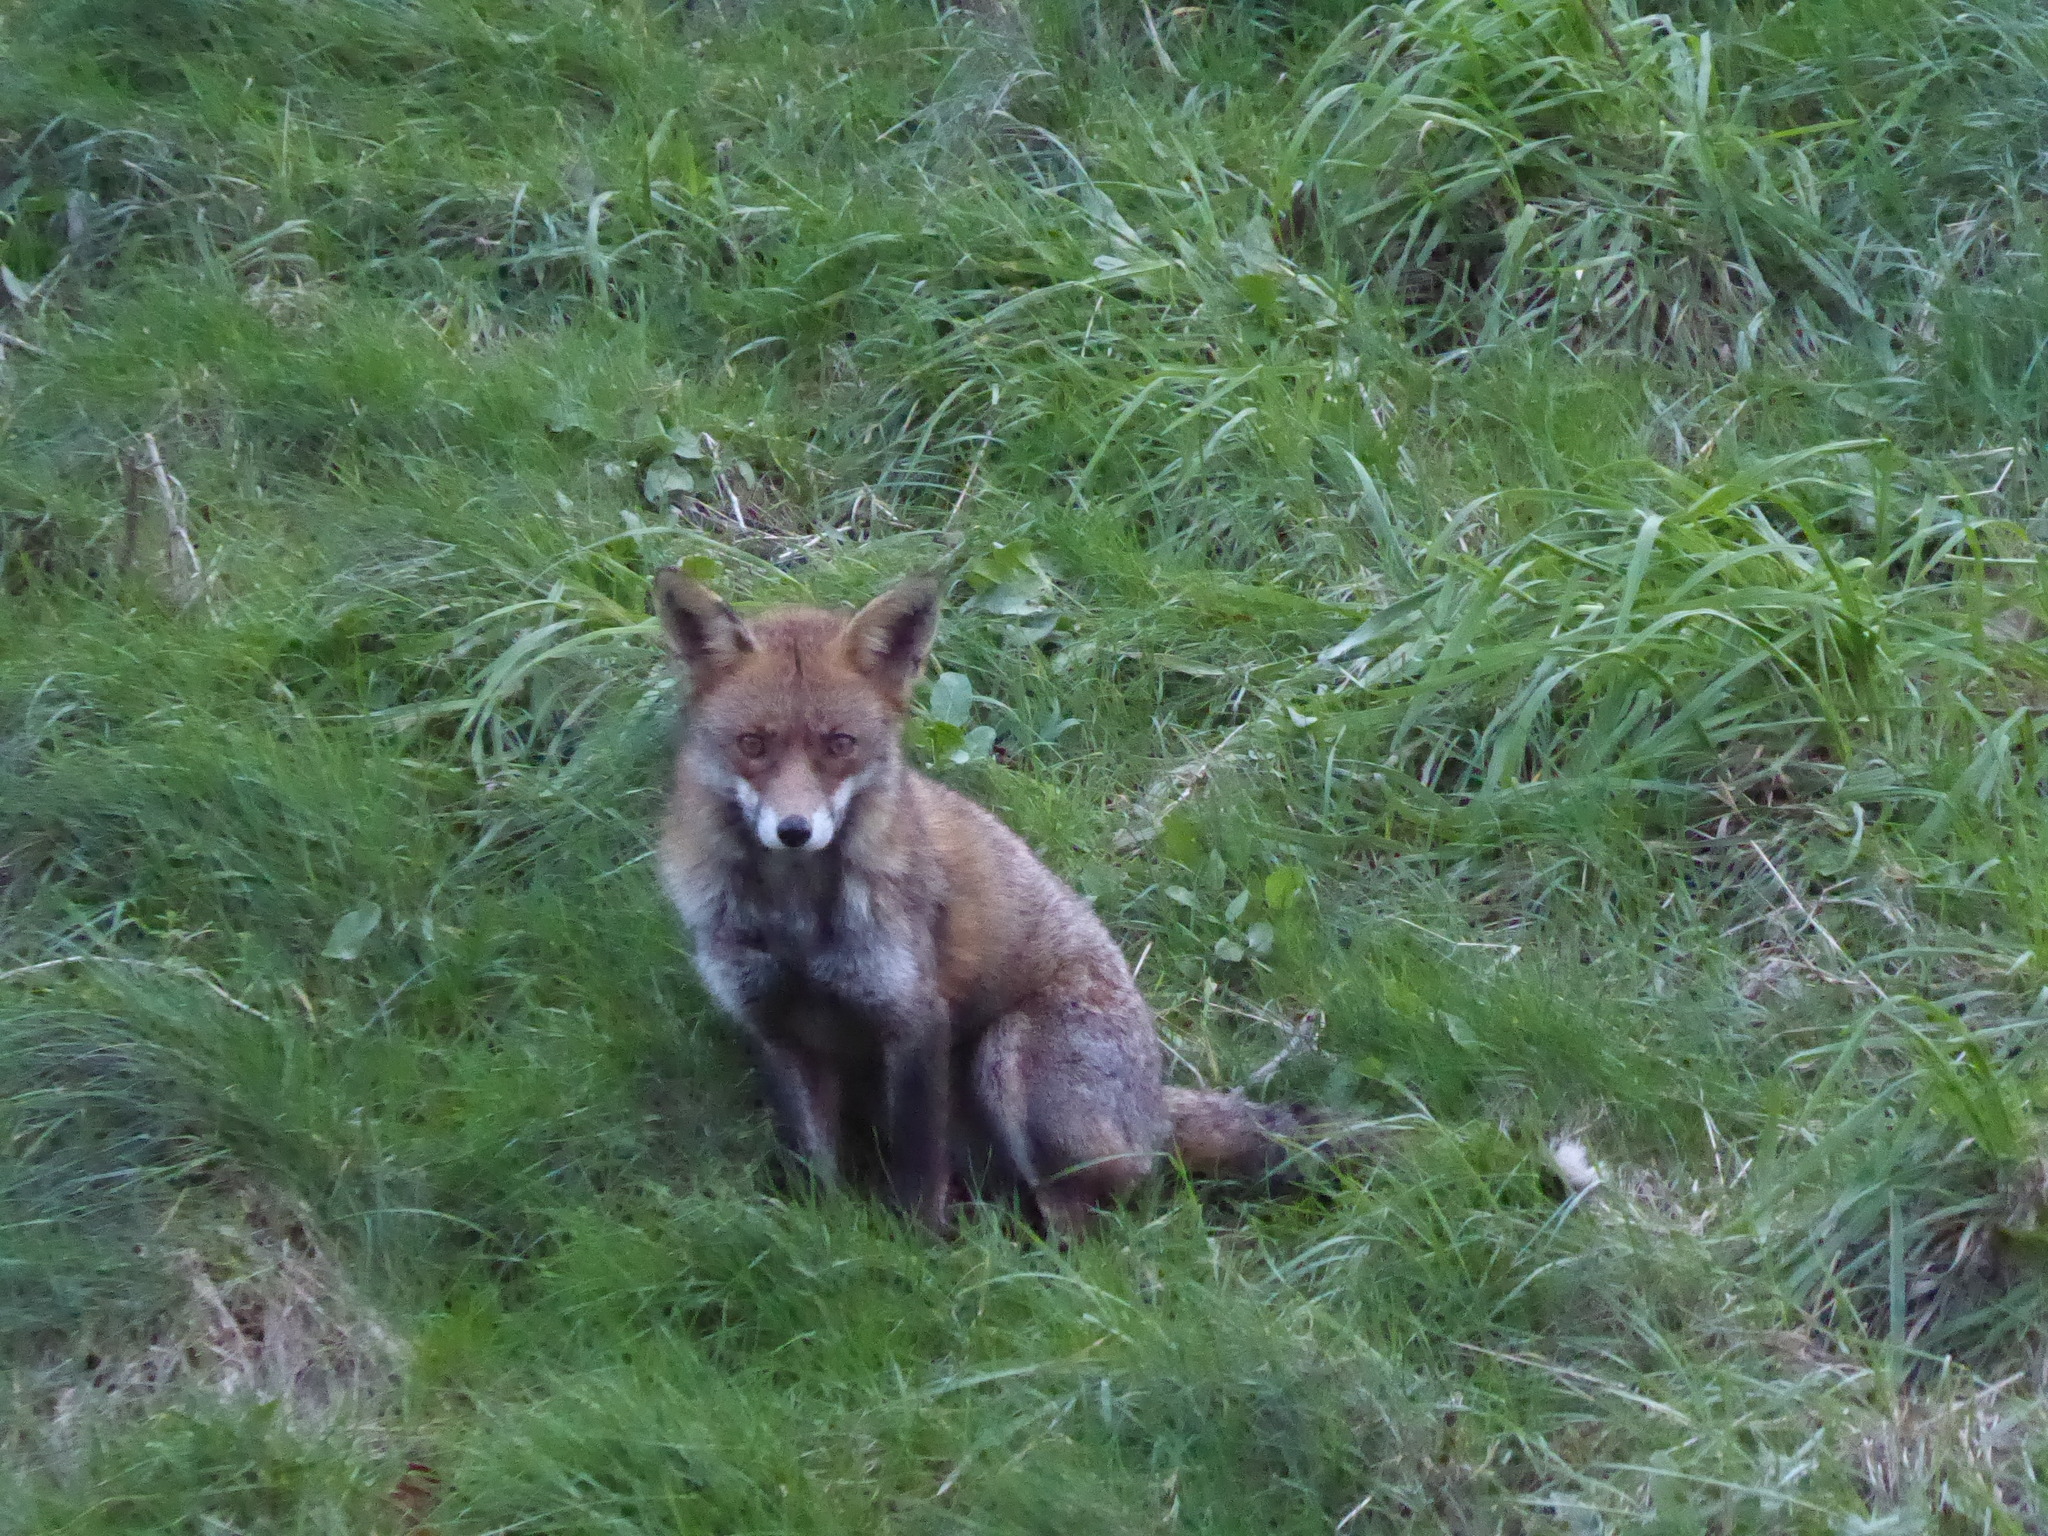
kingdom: Animalia
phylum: Chordata
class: Mammalia
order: Carnivora
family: Canidae
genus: Vulpes
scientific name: Vulpes vulpes
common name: Red fox
